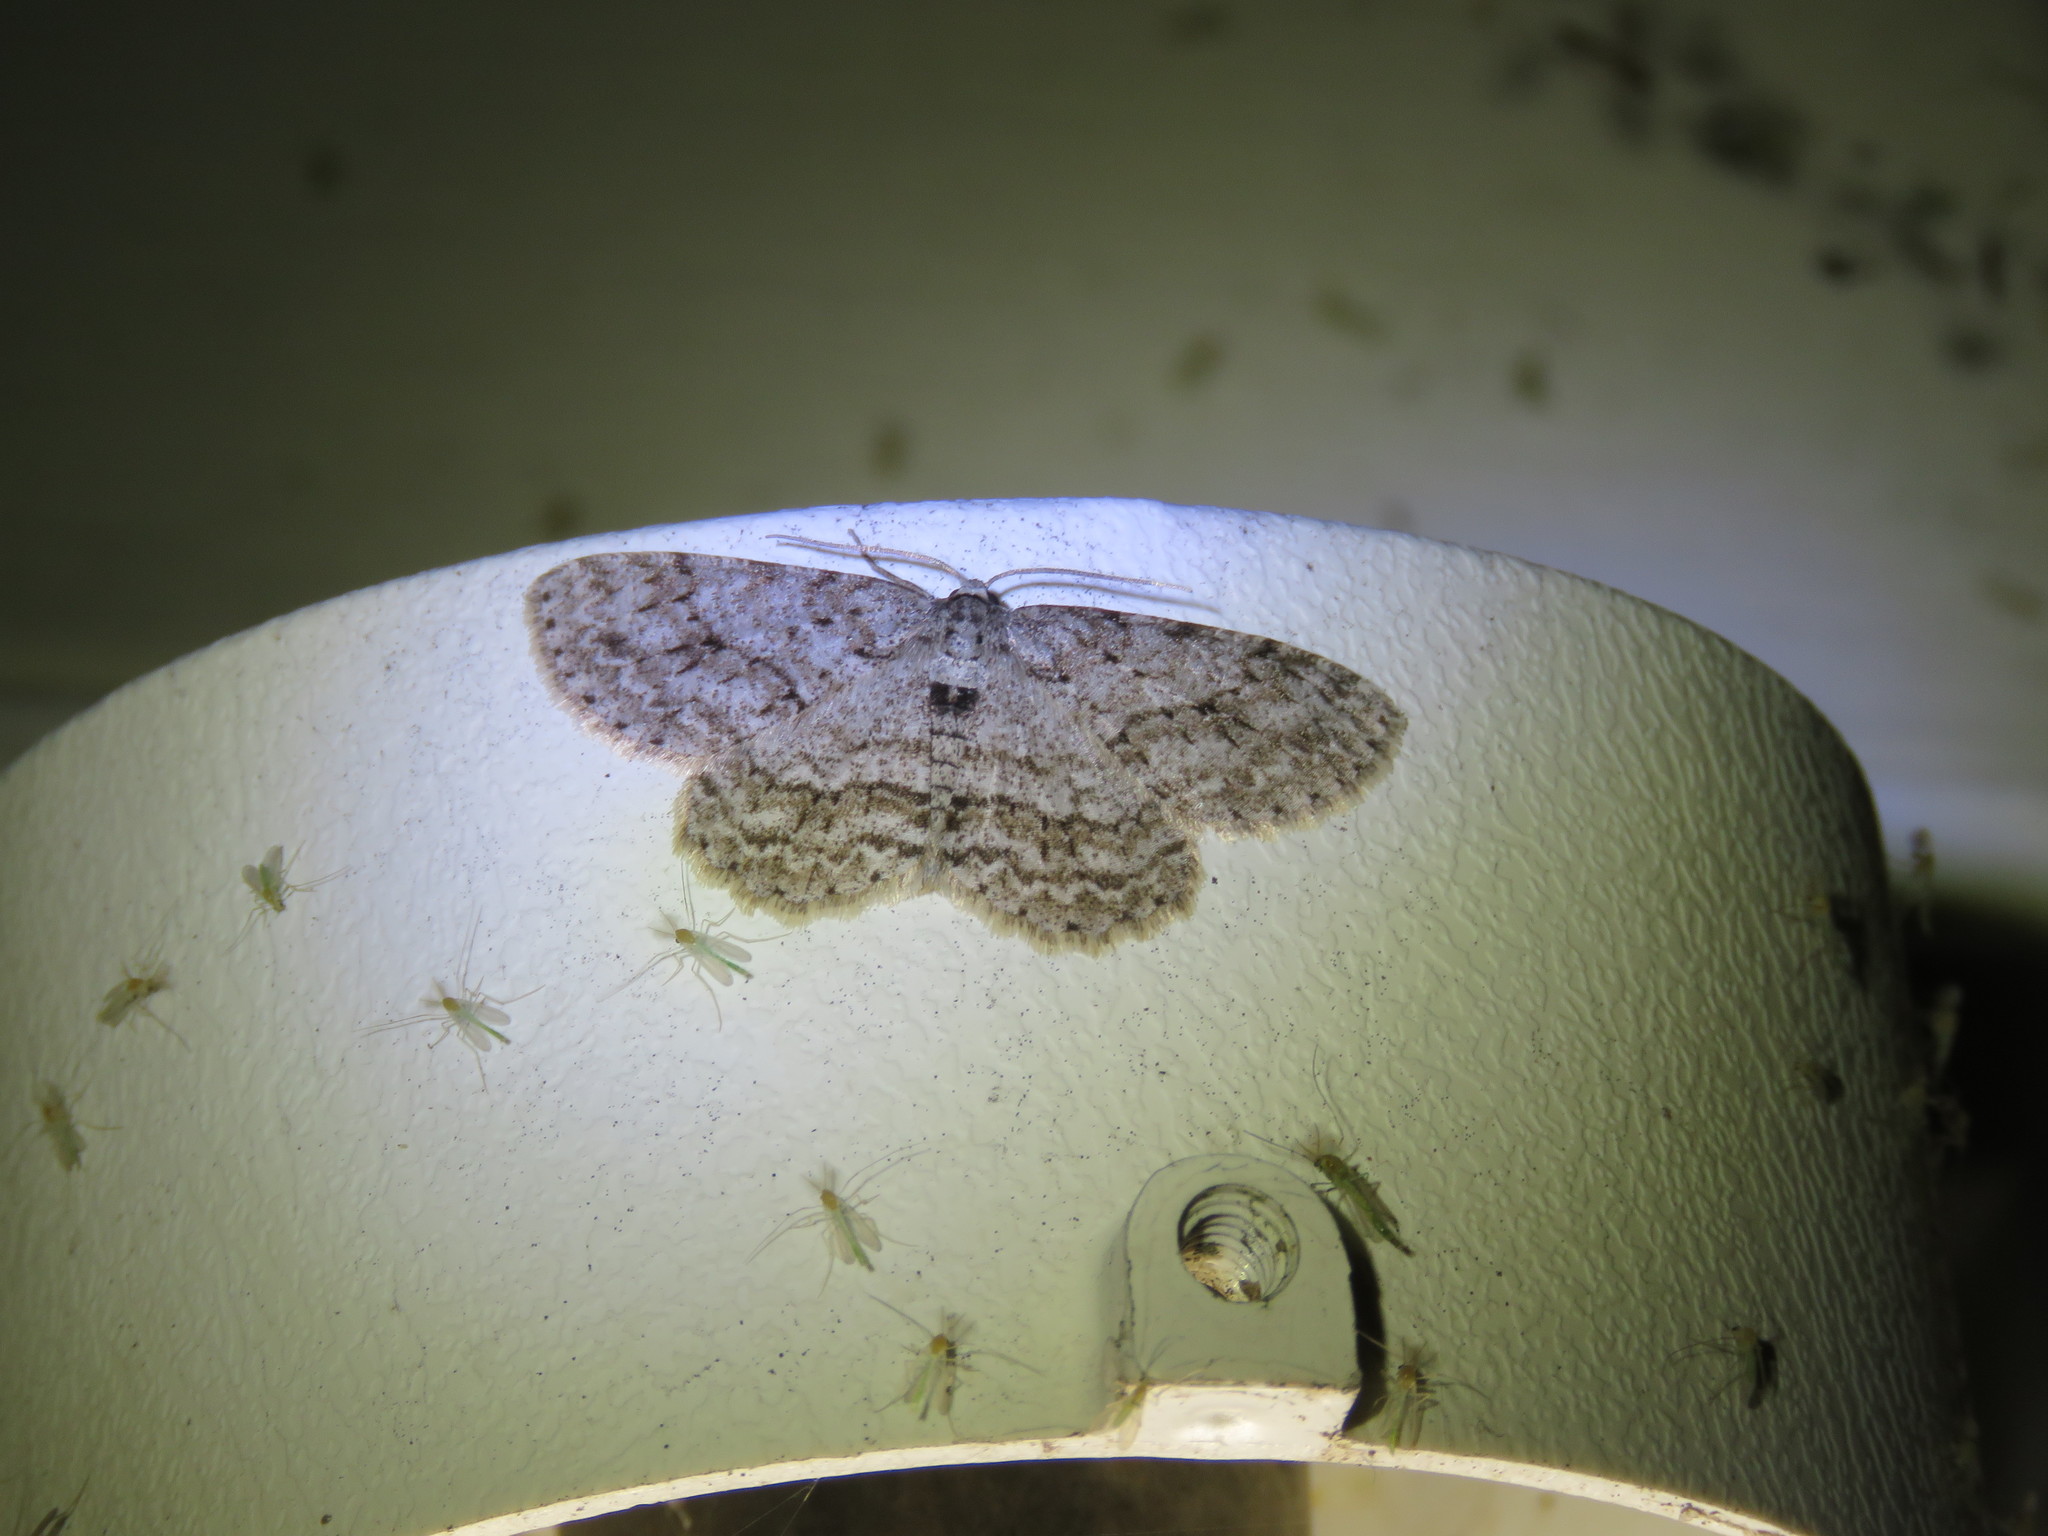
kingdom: Animalia
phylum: Arthropoda
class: Insecta
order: Lepidoptera
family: Geometridae
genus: Ectropis
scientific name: Ectropis crepuscularia
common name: Engrailed
